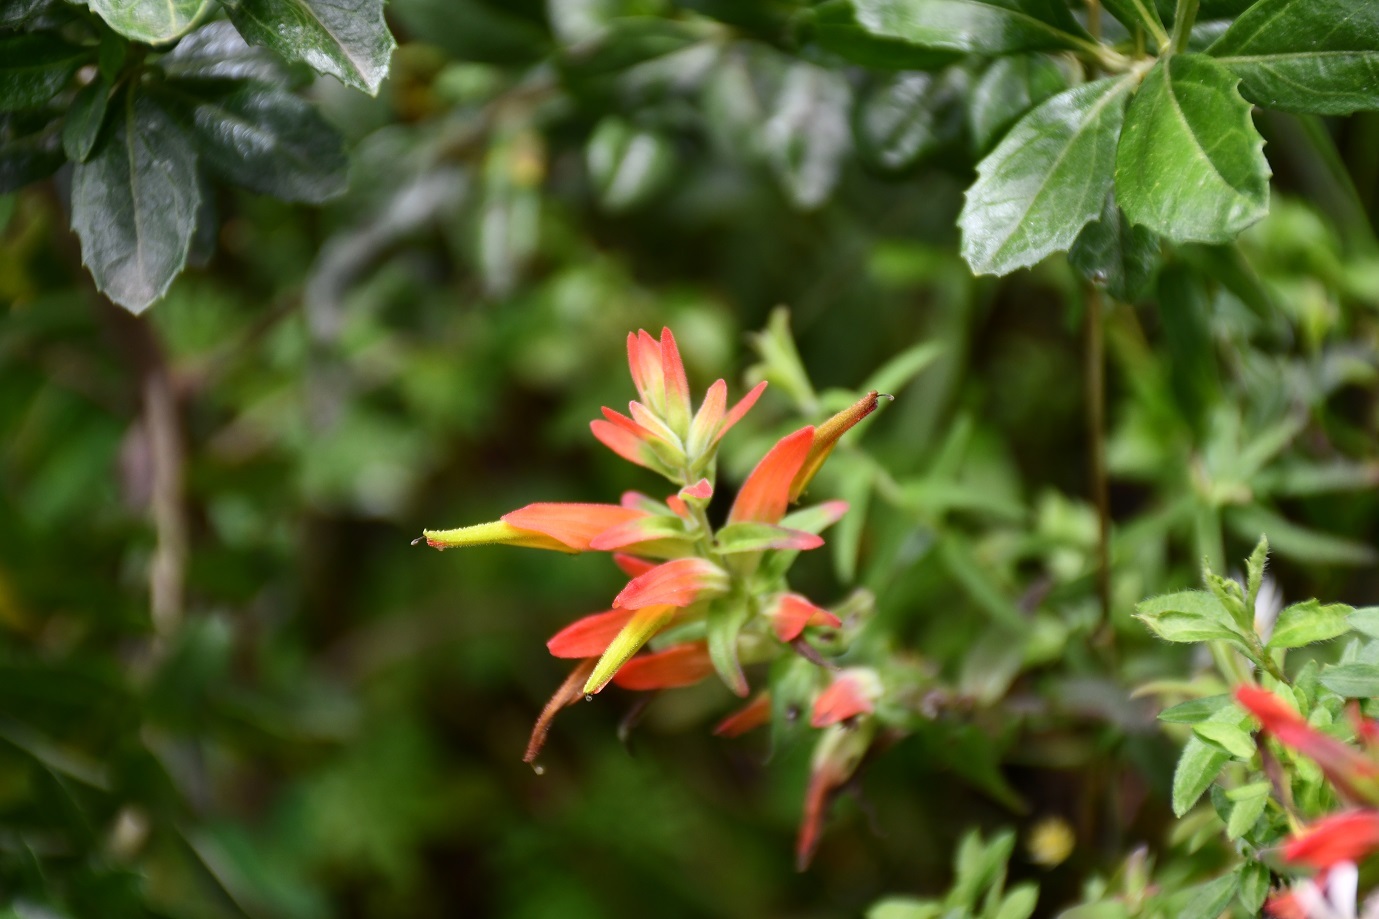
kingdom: Plantae
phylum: Tracheophyta
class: Magnoliopsida
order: Lamiales
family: Orobanchaceae
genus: Castilleja
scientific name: Castilleja tenuiflora
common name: Santa catalina indian paintbrush
